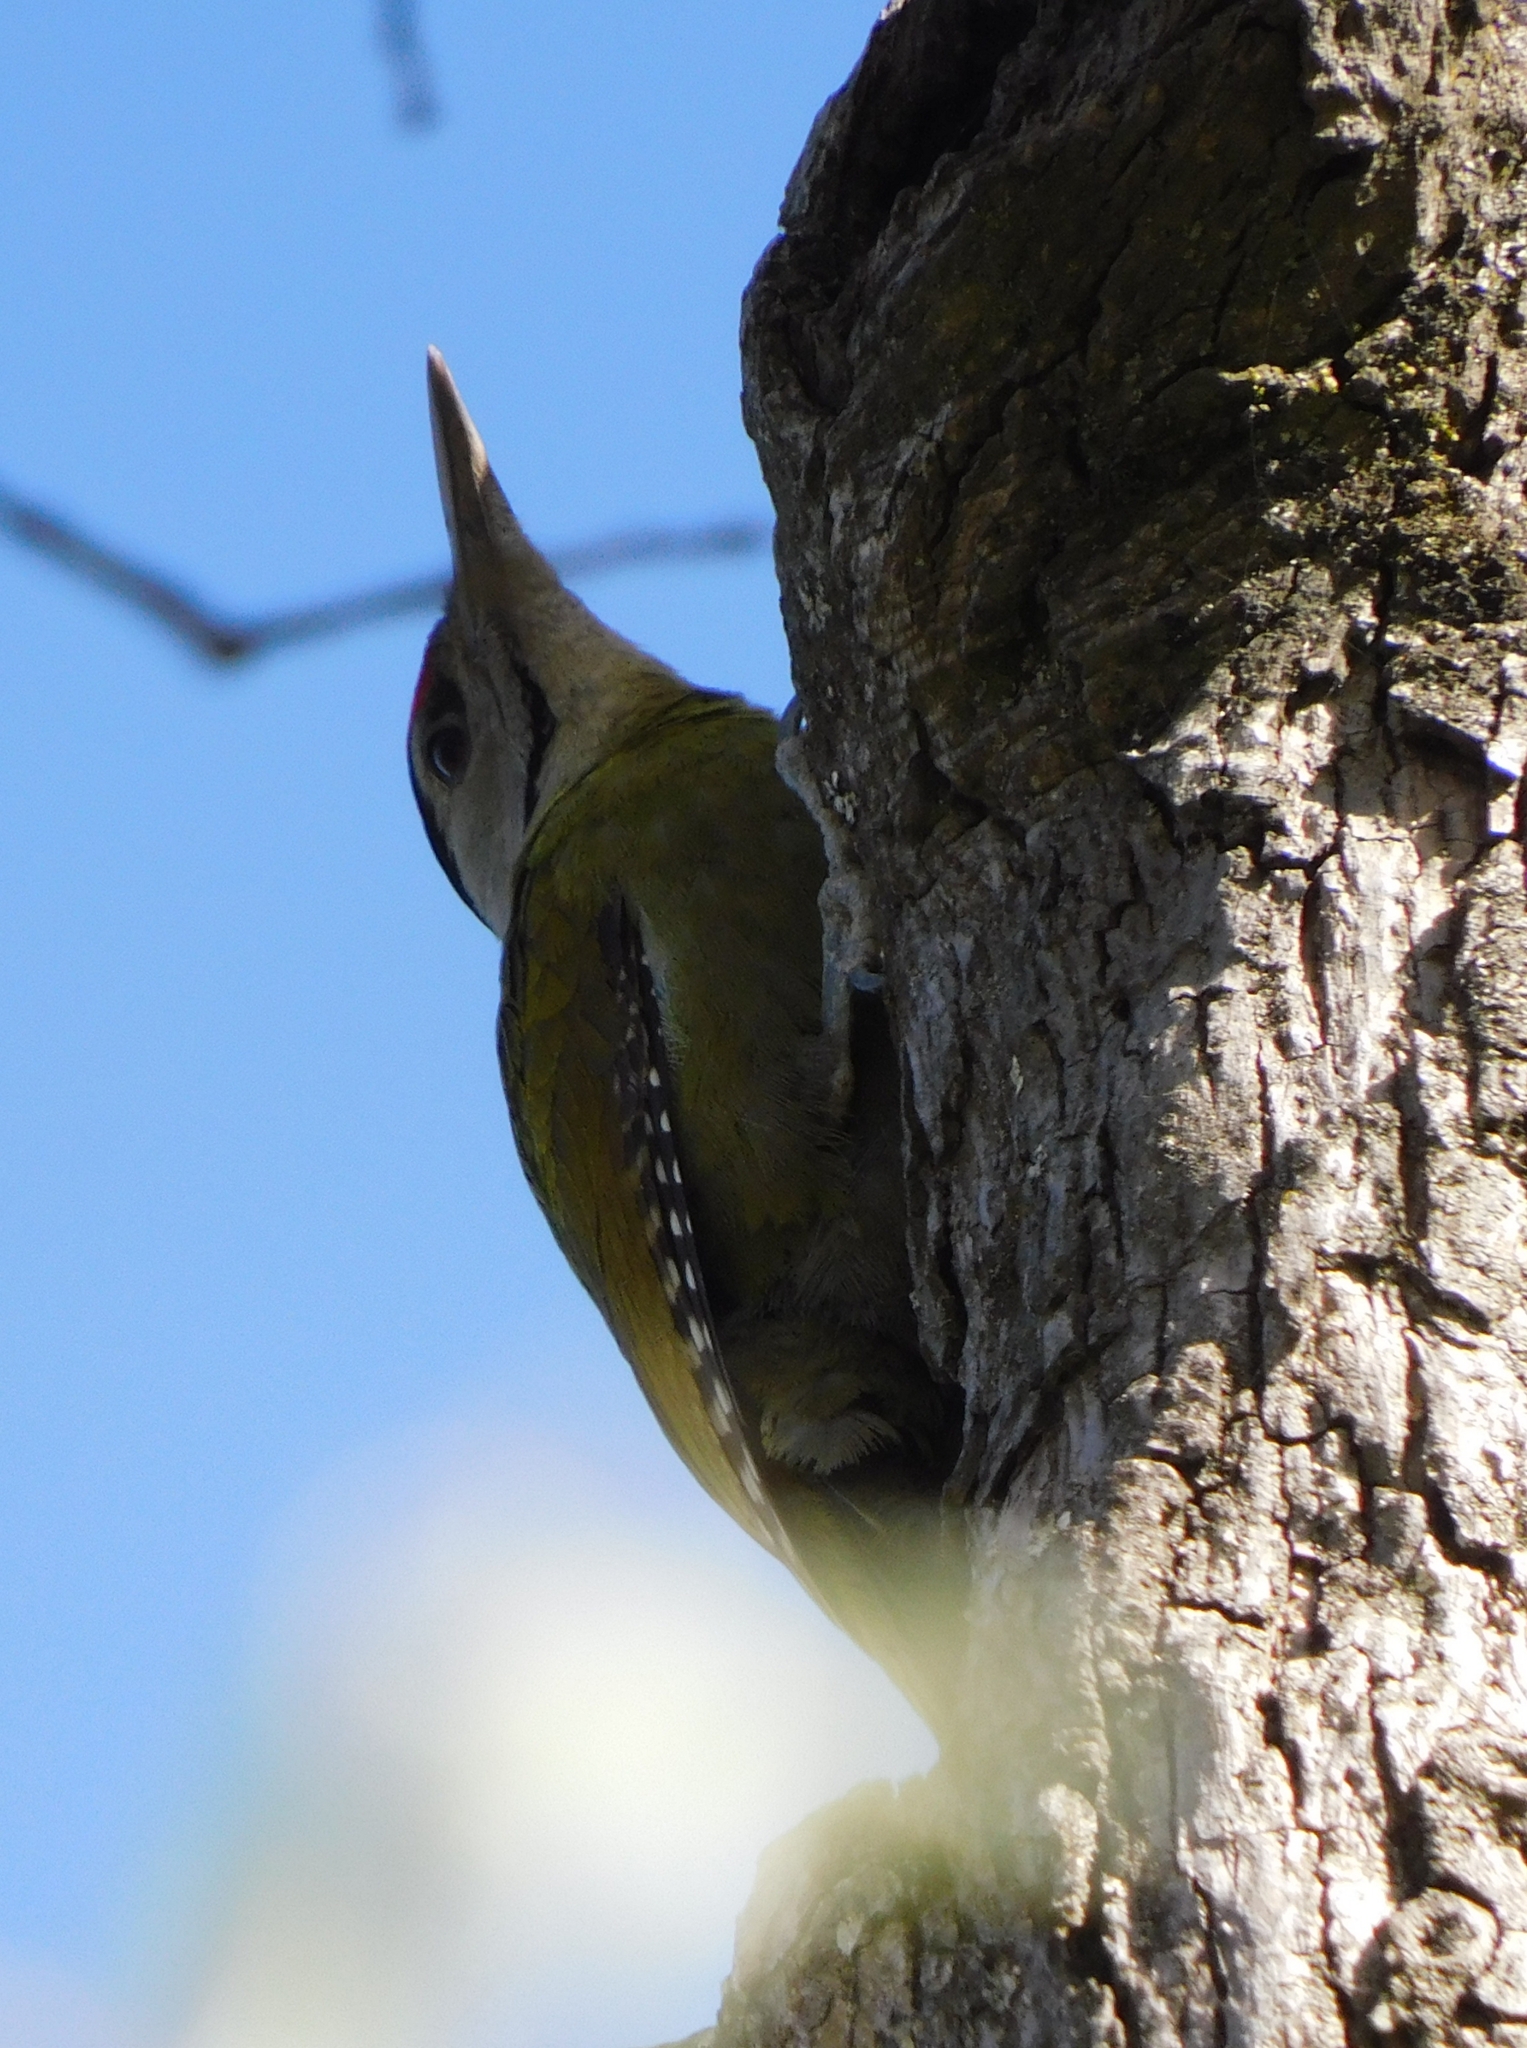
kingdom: Animalia
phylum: Chordata
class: Aves
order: Piciformes
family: Picidae
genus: Picus
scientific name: Picus canus
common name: Grey-headed woodpecker
